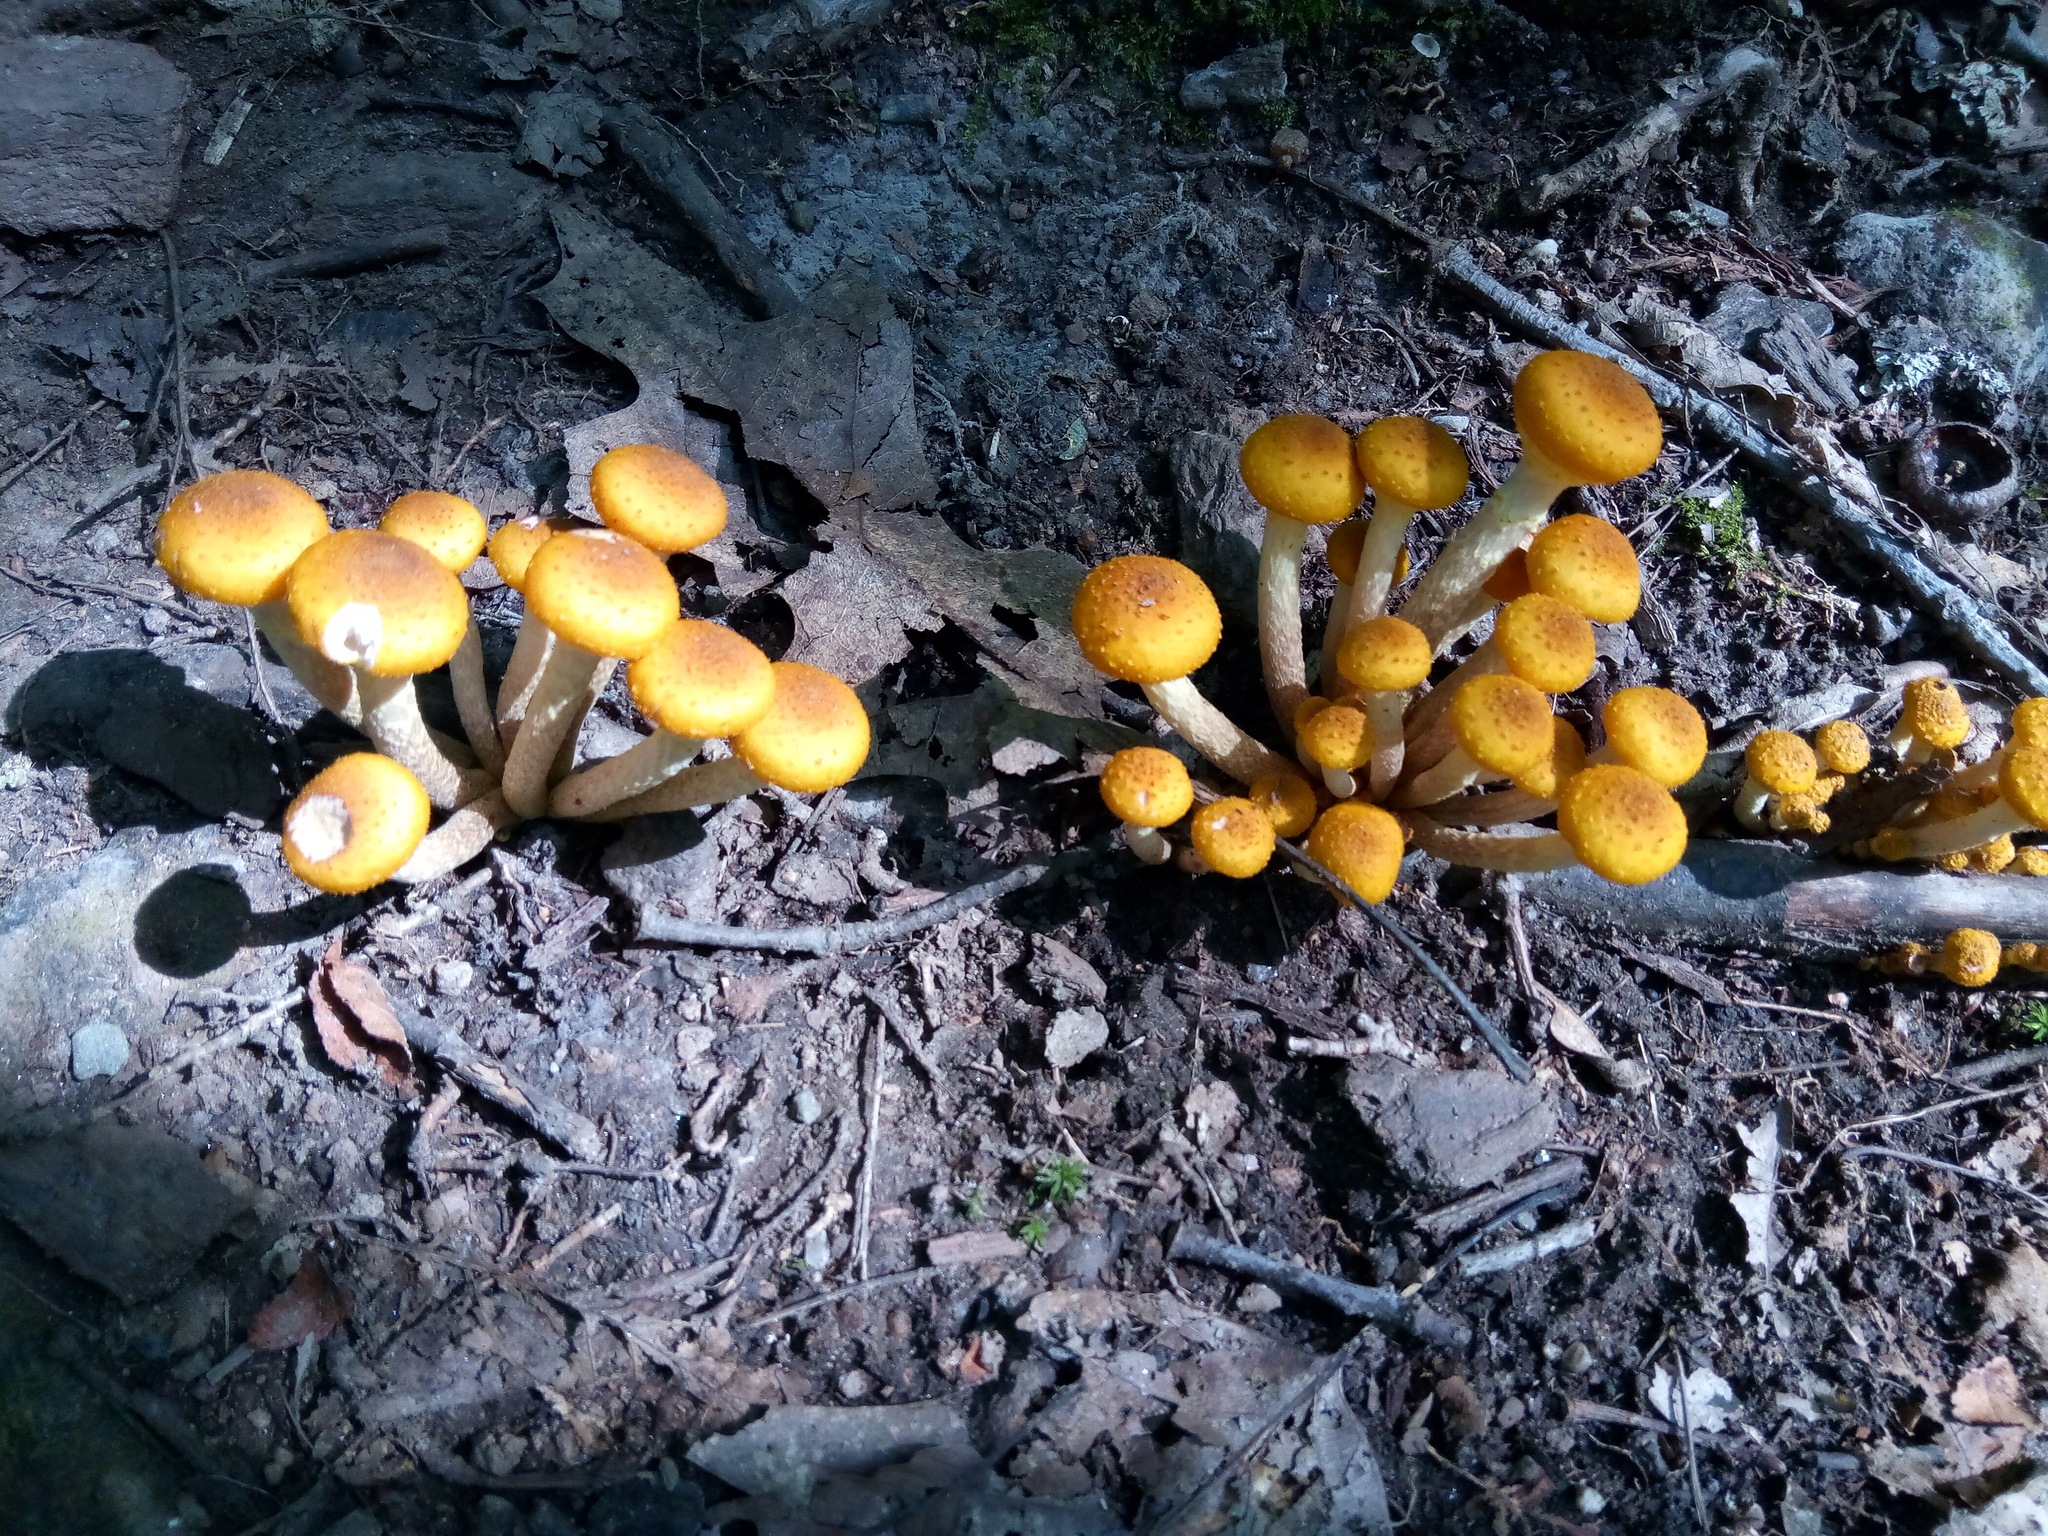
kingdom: Fungi
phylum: Basidiomycota
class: Agaricomycetes
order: Agaricales
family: Physalacriaceae
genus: Armillaria
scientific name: Armillaria mellea
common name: Honey fungus
